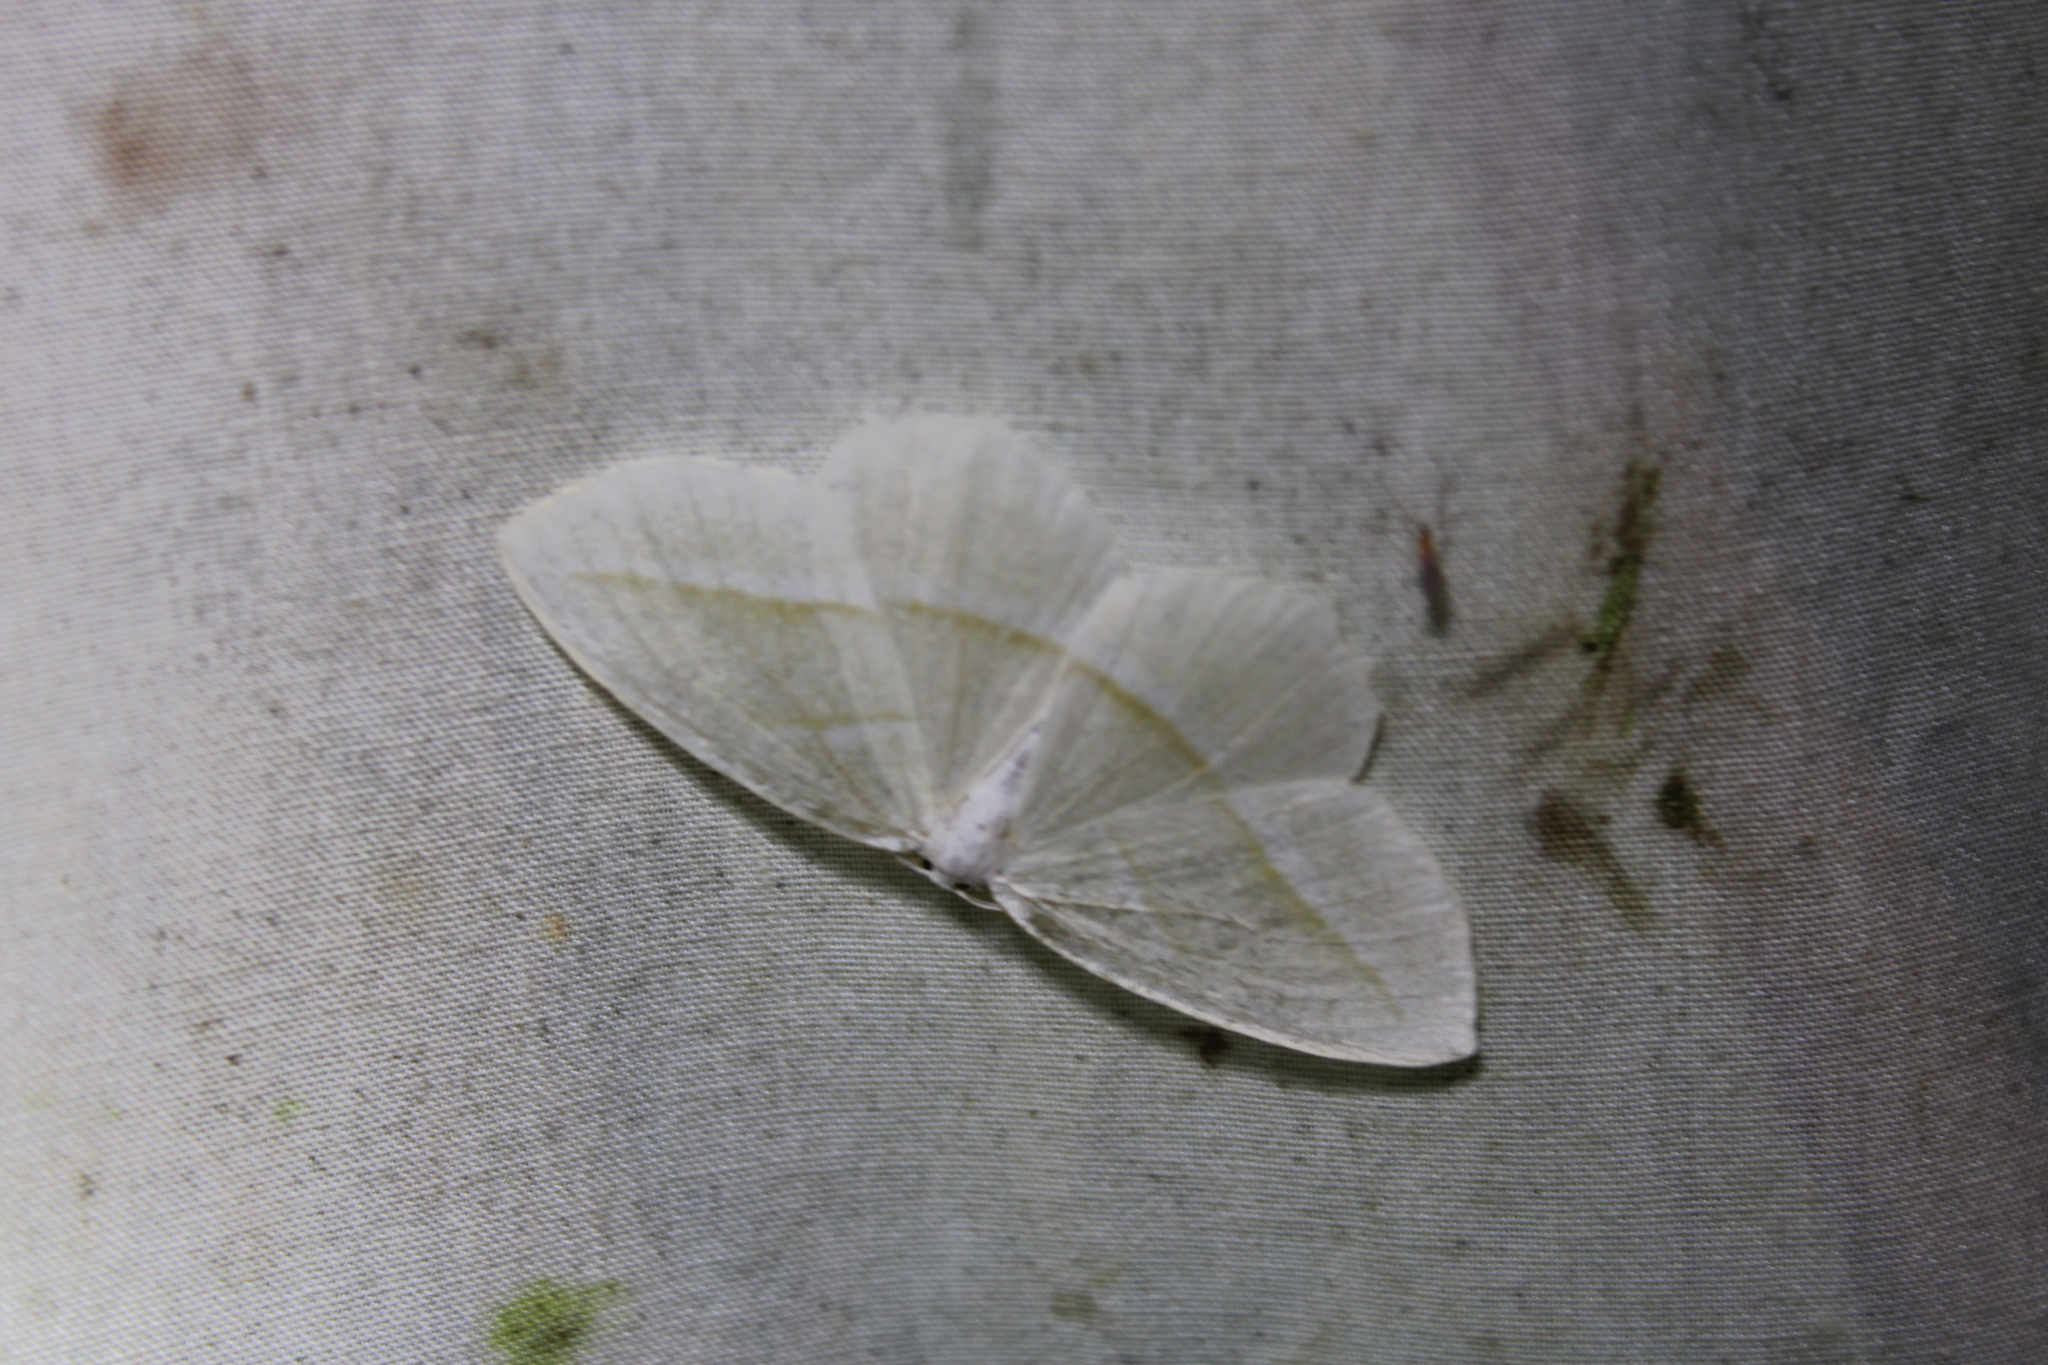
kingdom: Animalia
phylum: Arthropoda
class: Insecta
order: Lepidoptera
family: Geometridae
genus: Campaea
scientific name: Campaea perlata
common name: Fringed looper
